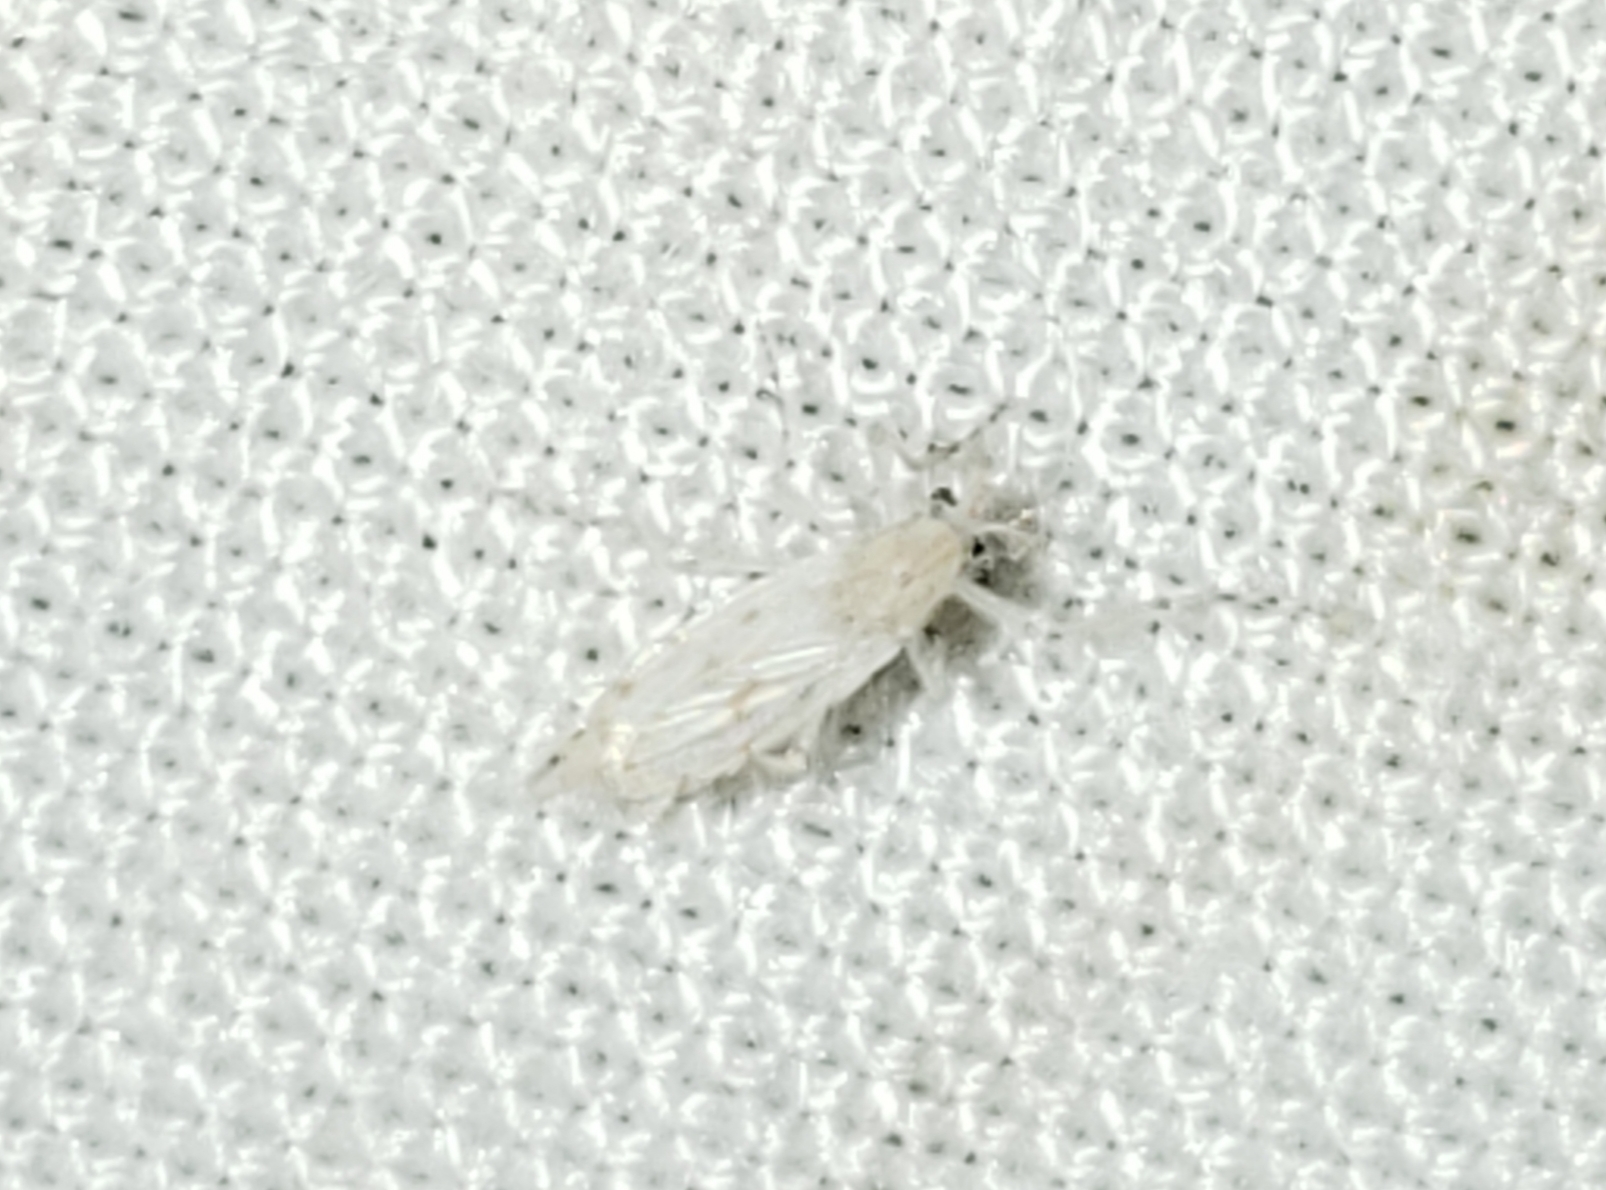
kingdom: Animalia
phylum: Arthropoda
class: Insecta
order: Diptera
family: Chaoboridae
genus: Chaoborus
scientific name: Chaoborus albatus
